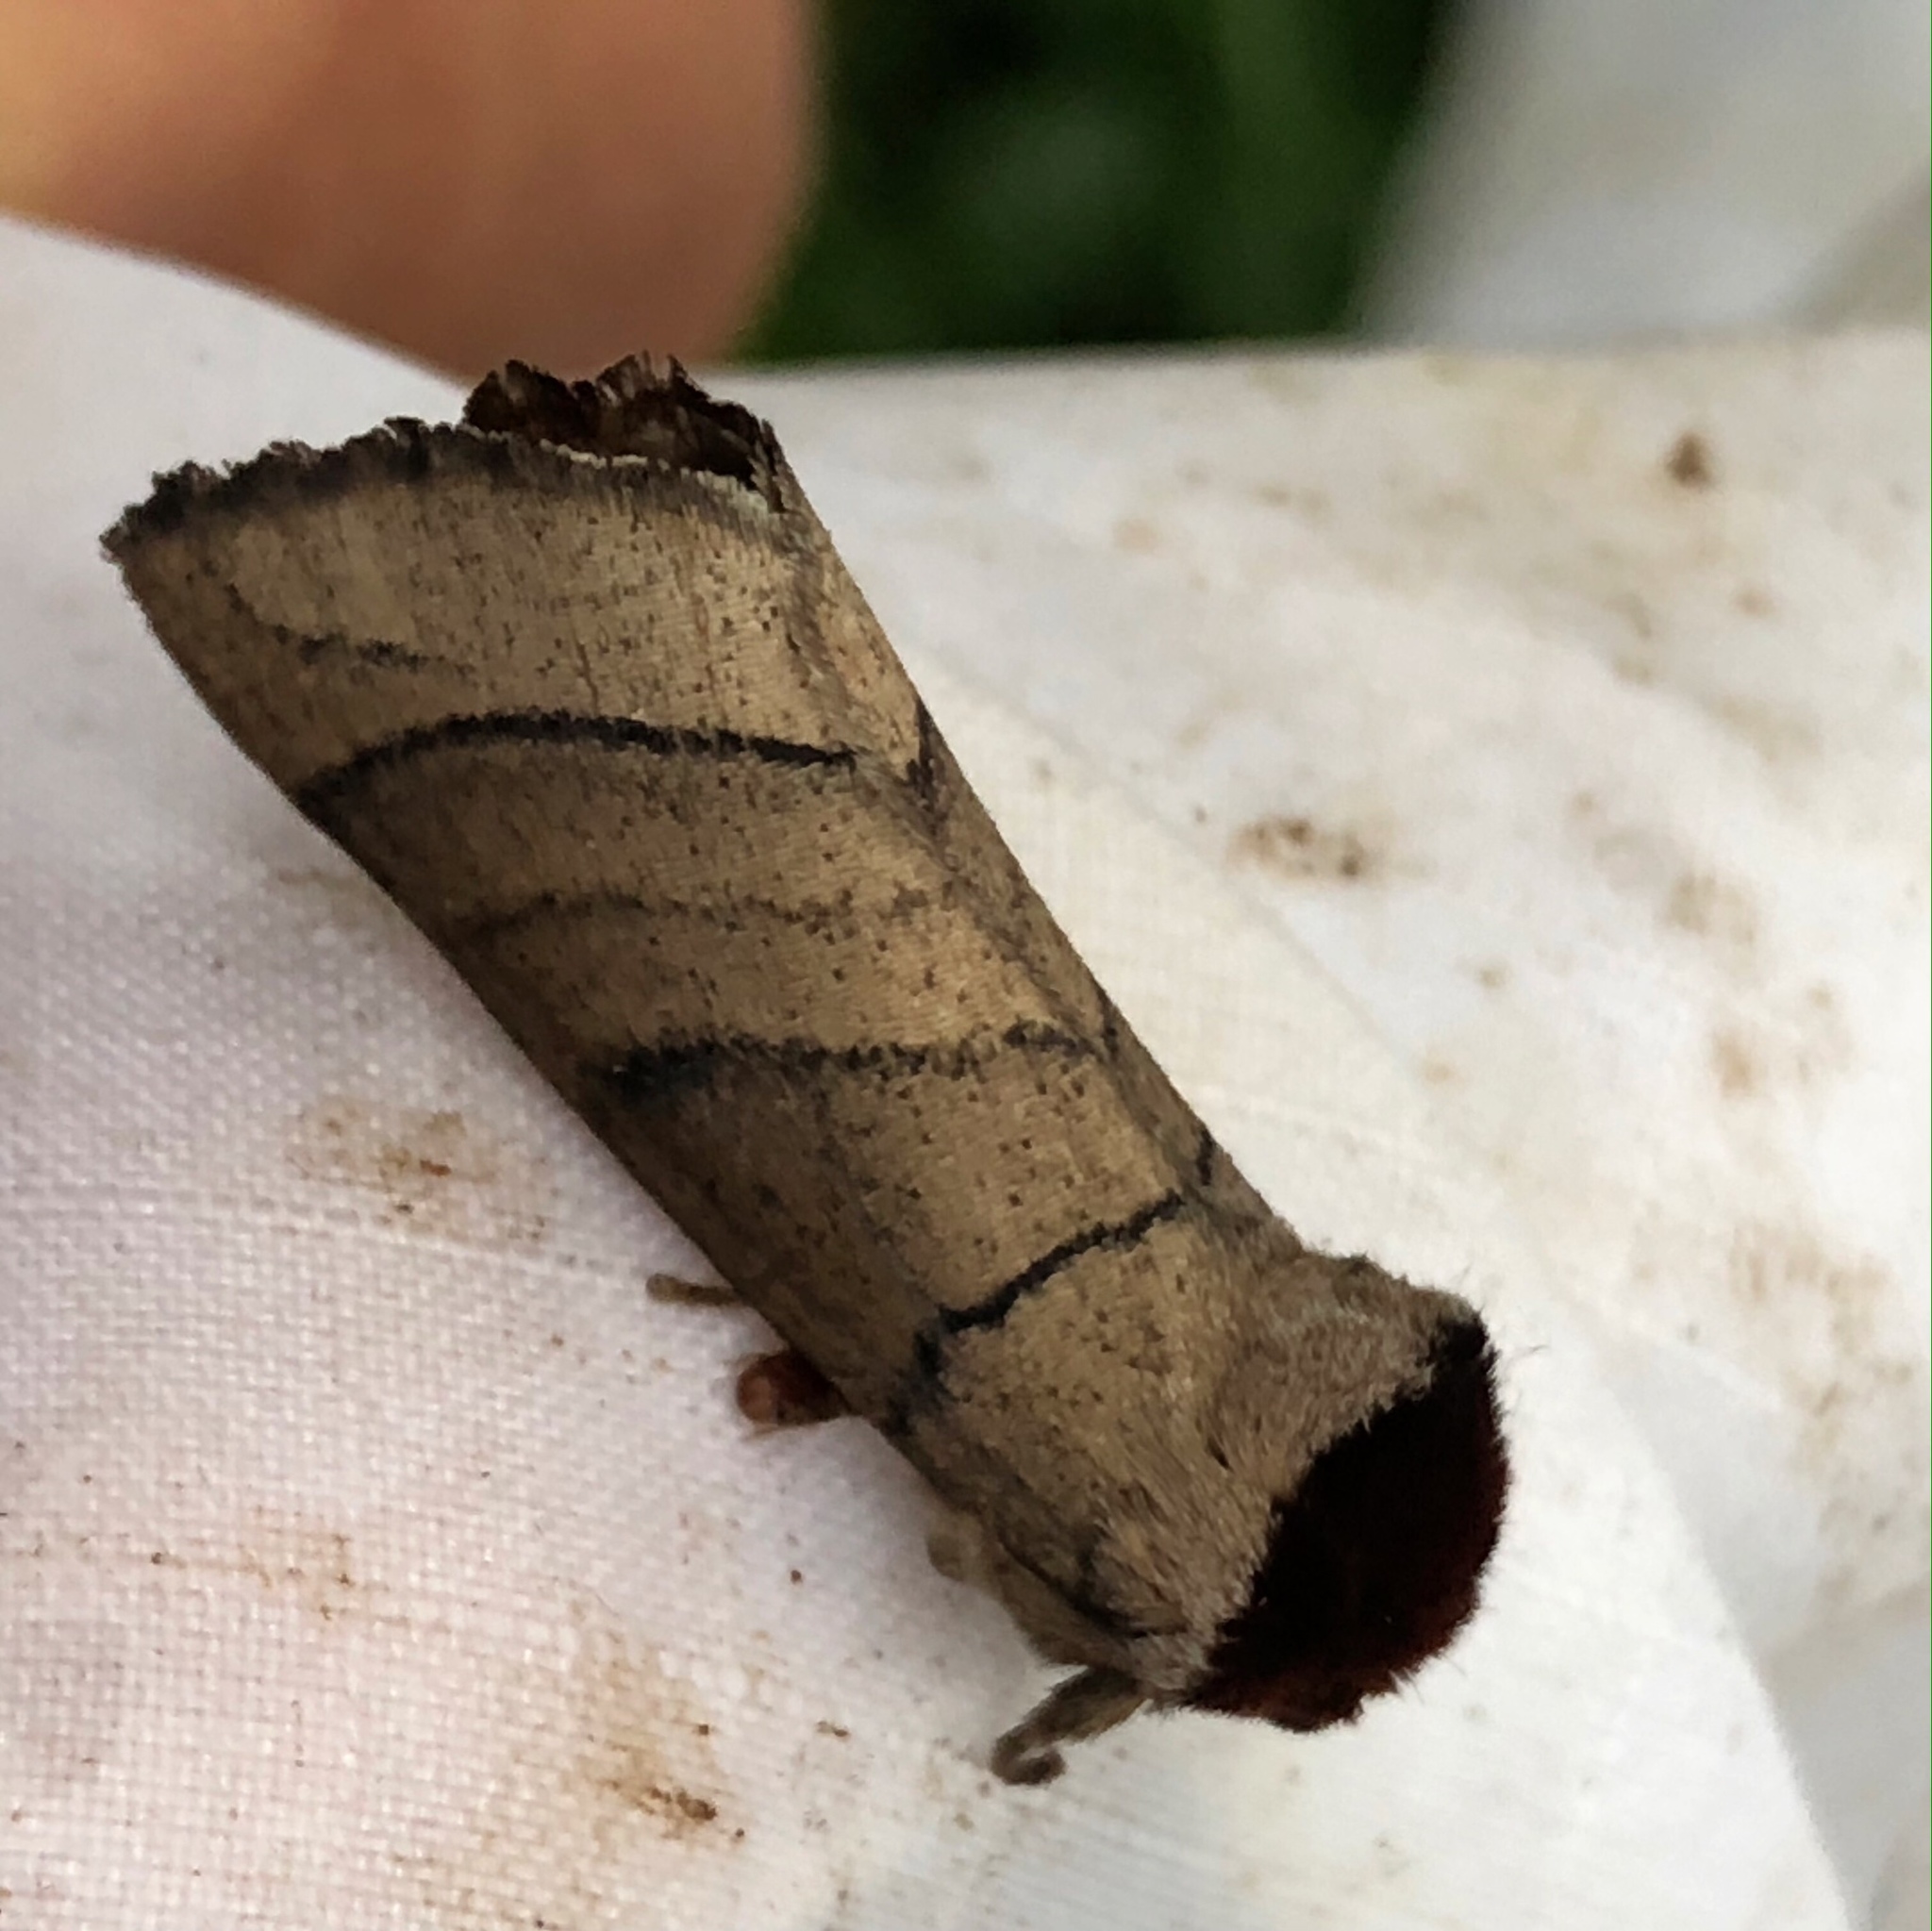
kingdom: Animalia
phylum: Arthropoda
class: Insecta
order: Lepidoptera
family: Notodontidae
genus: Datana
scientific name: Datana angusii
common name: Angus's datana
